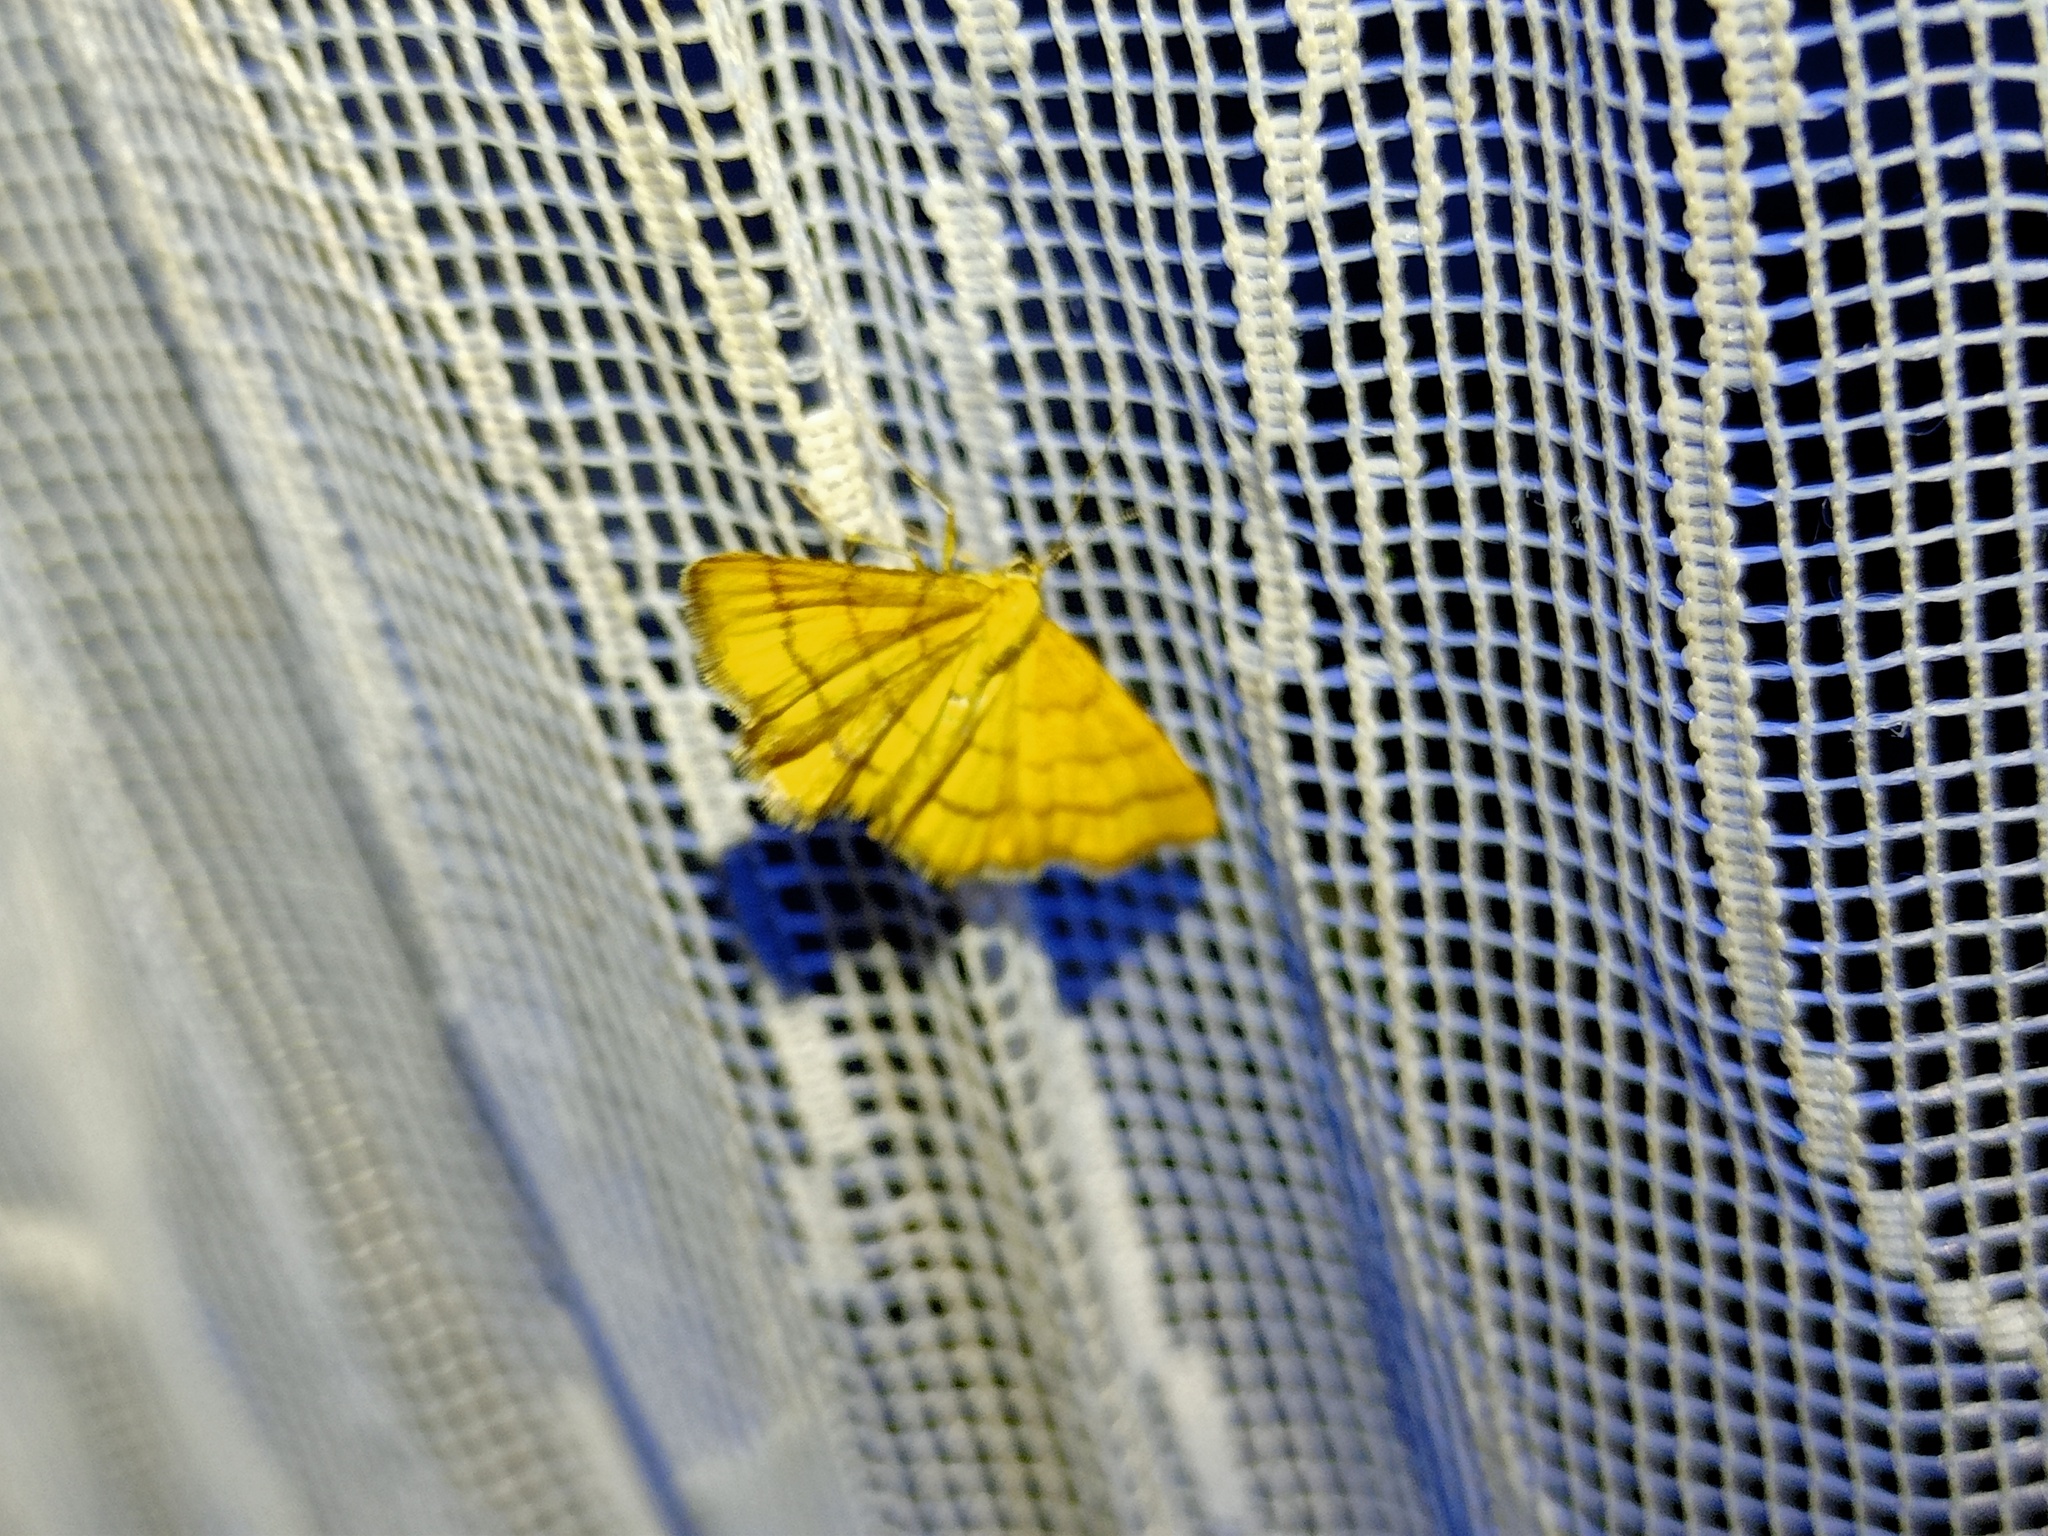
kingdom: Animalia
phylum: Arthropoda
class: Insecta
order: Lepidoptera
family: Geometridae
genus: Idaea
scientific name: Idaea aureolaria
